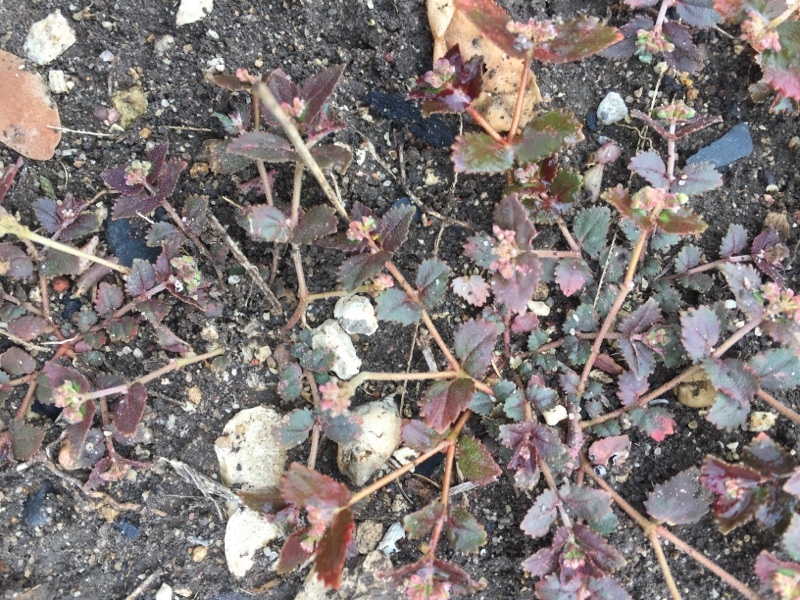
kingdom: Plantae
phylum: Tracheophyta
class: Magnoliopsida
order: Malpighiales
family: Euphorbiaceae
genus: Euphorbia
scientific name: Euphorbia ophthalmica
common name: Florida hammock sandmat
